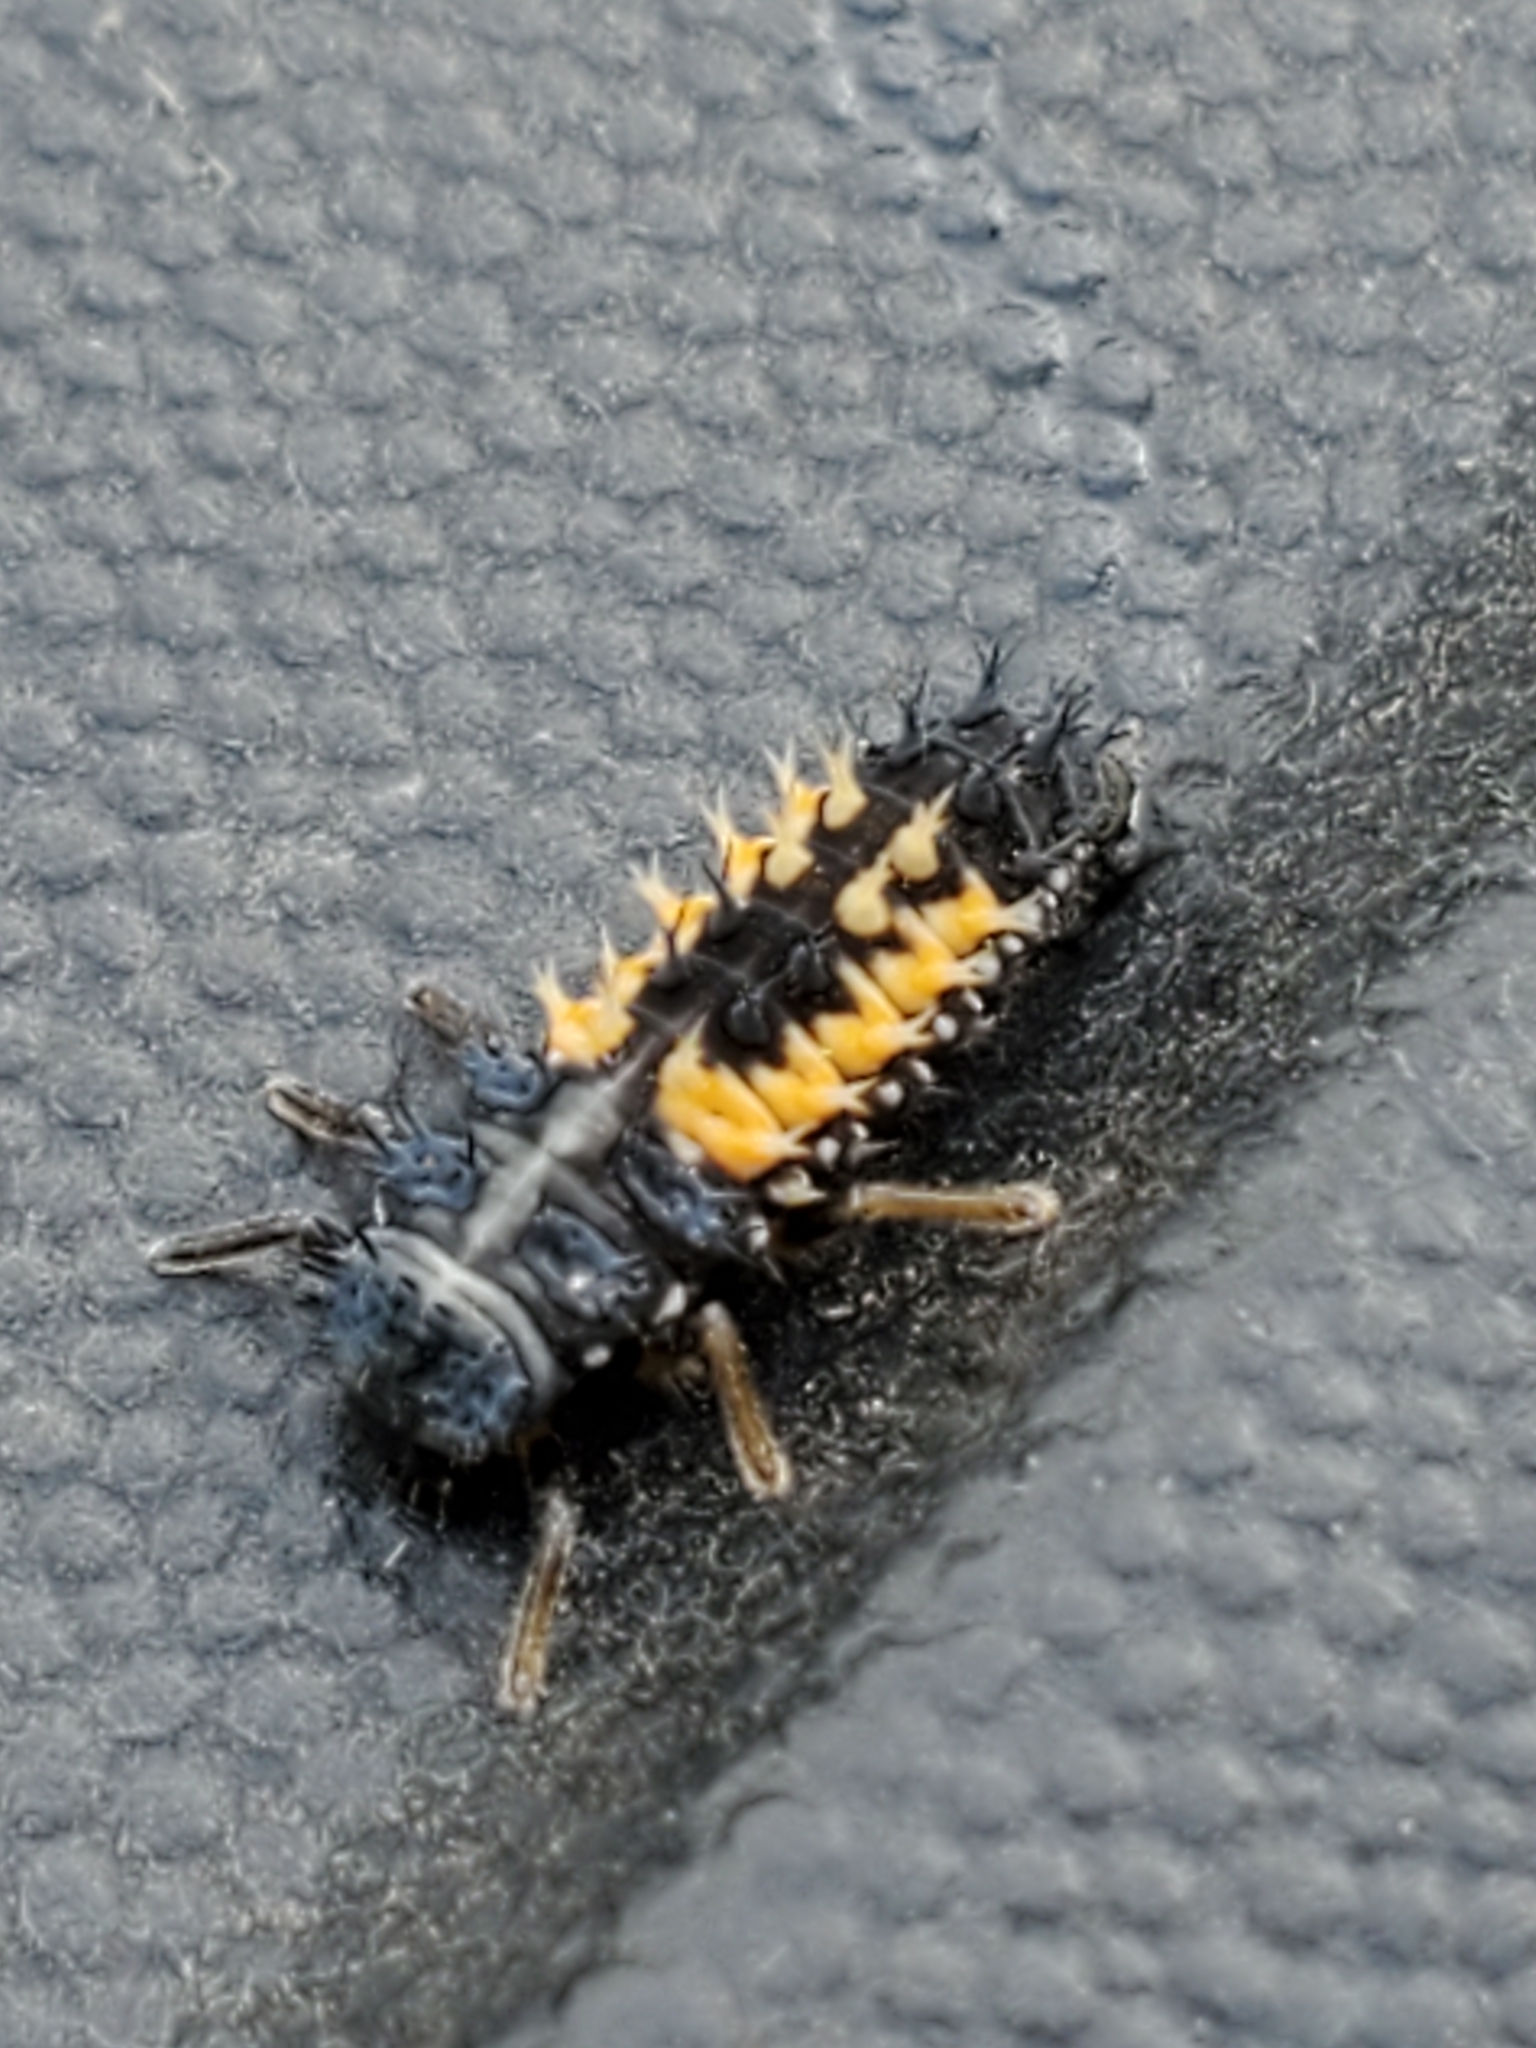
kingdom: Animalia
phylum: Arthropoda
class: Insecta
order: Coleoptera
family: Coccinellidae
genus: Harmonia
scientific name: Harmonia axyridis
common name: Harlequin ladybird
